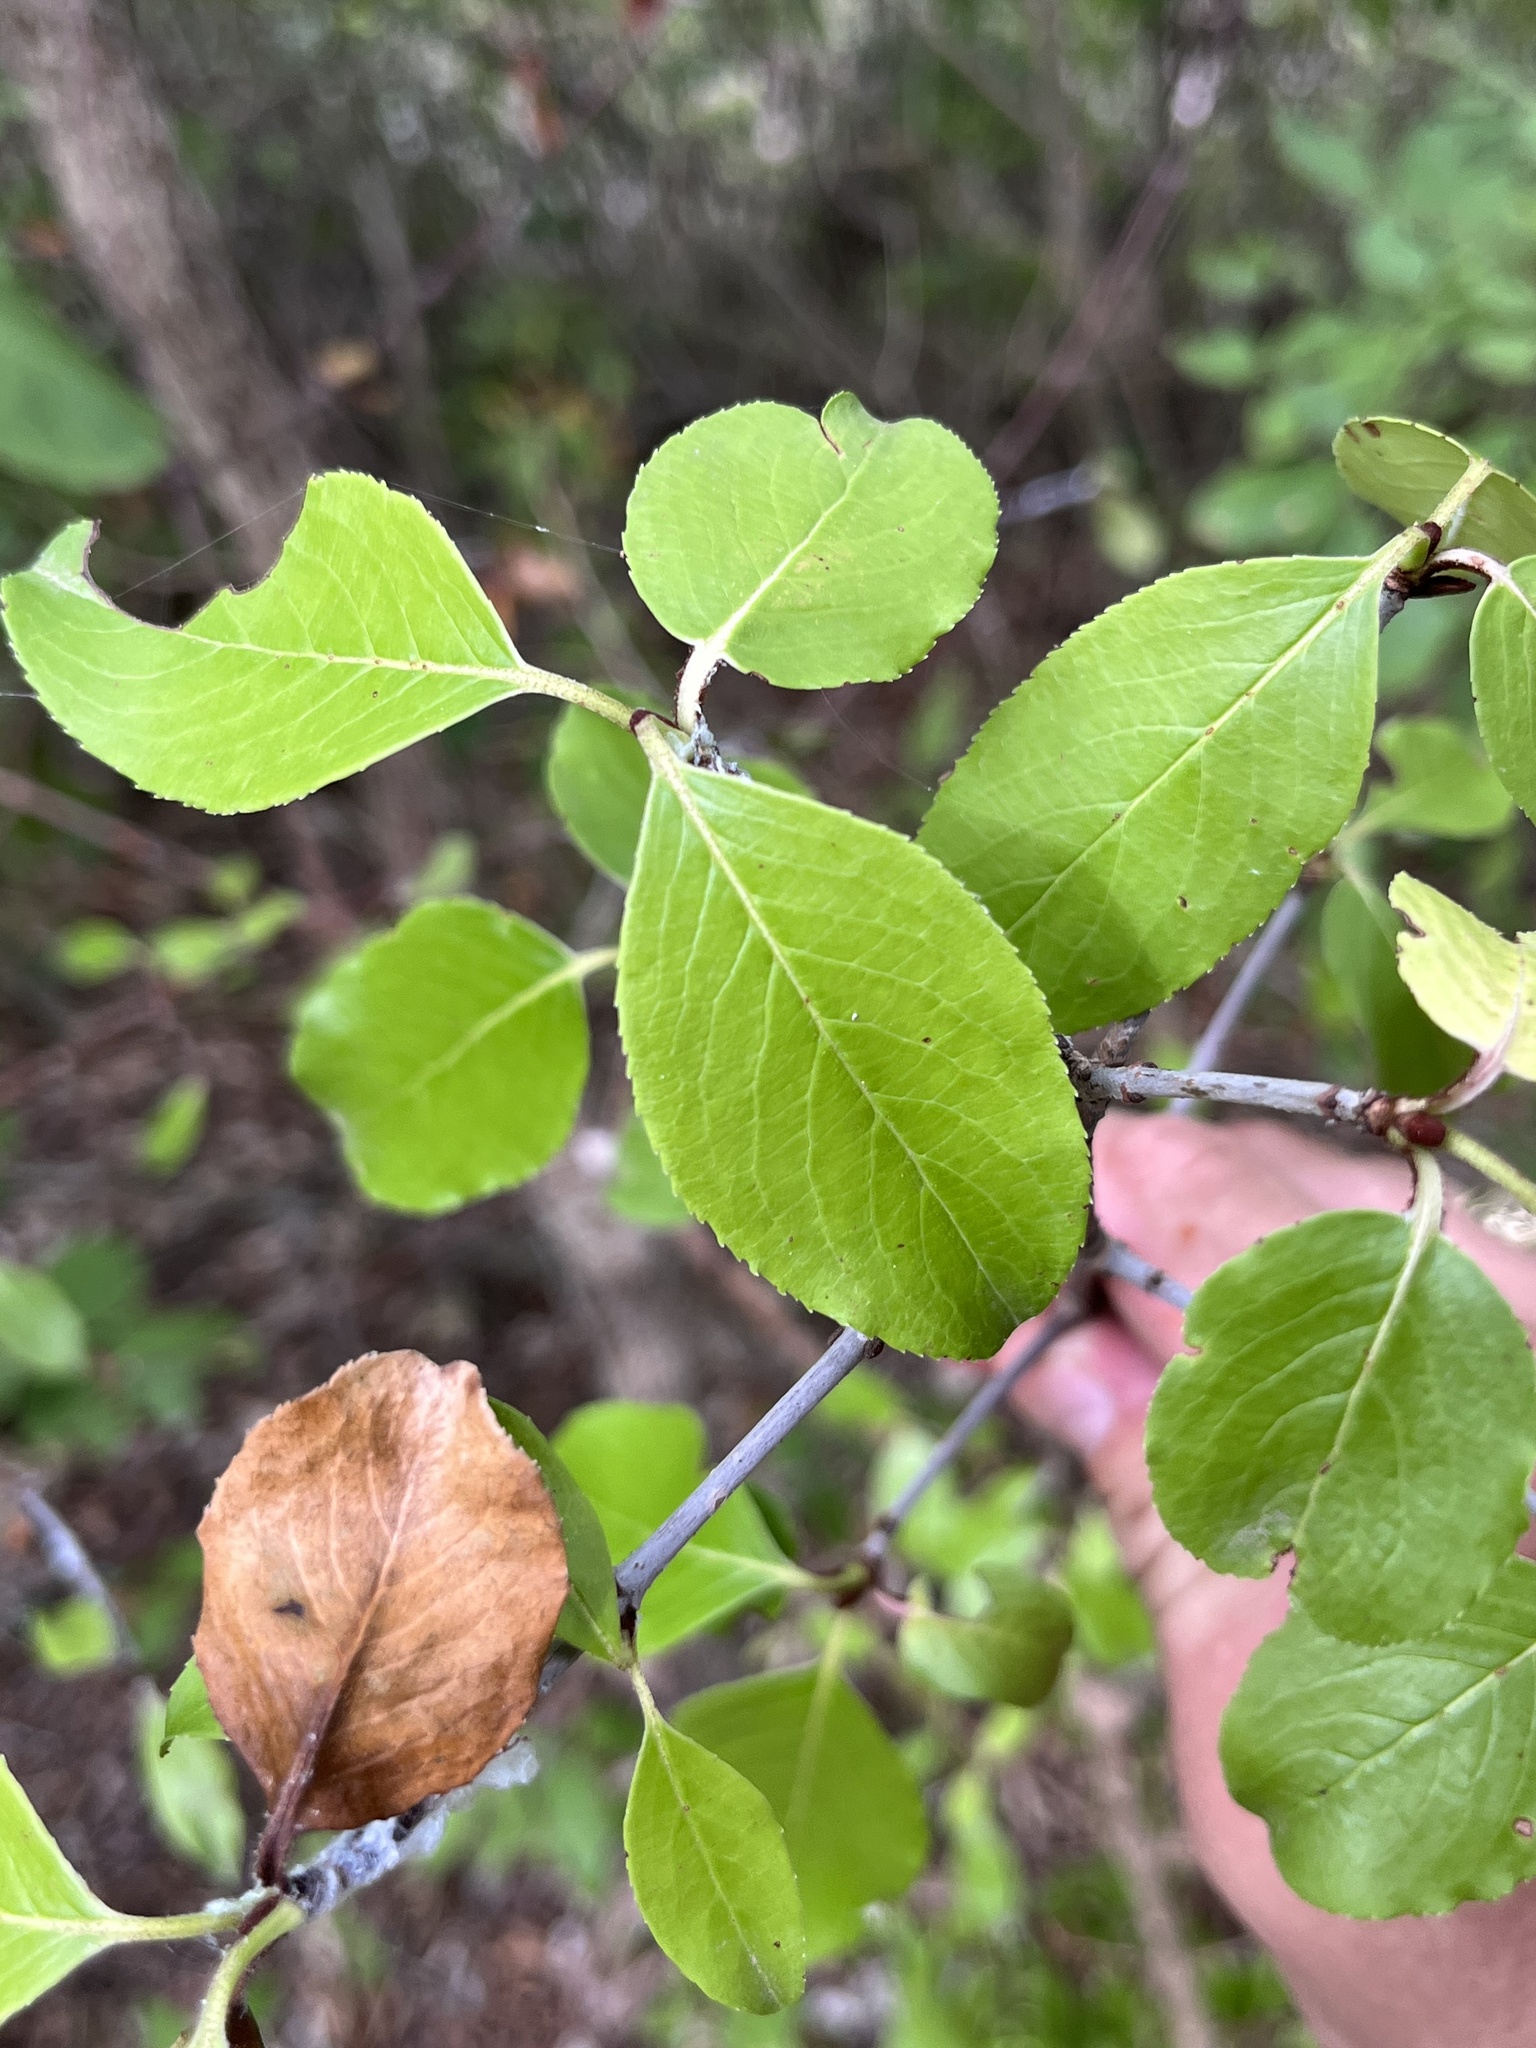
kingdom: Plantae
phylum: Tracheophyta
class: Magnoliopsida
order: Dipsacales
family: Viburnaceae
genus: Viburnum
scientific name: Viburnum rufidulum
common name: Blue haw
